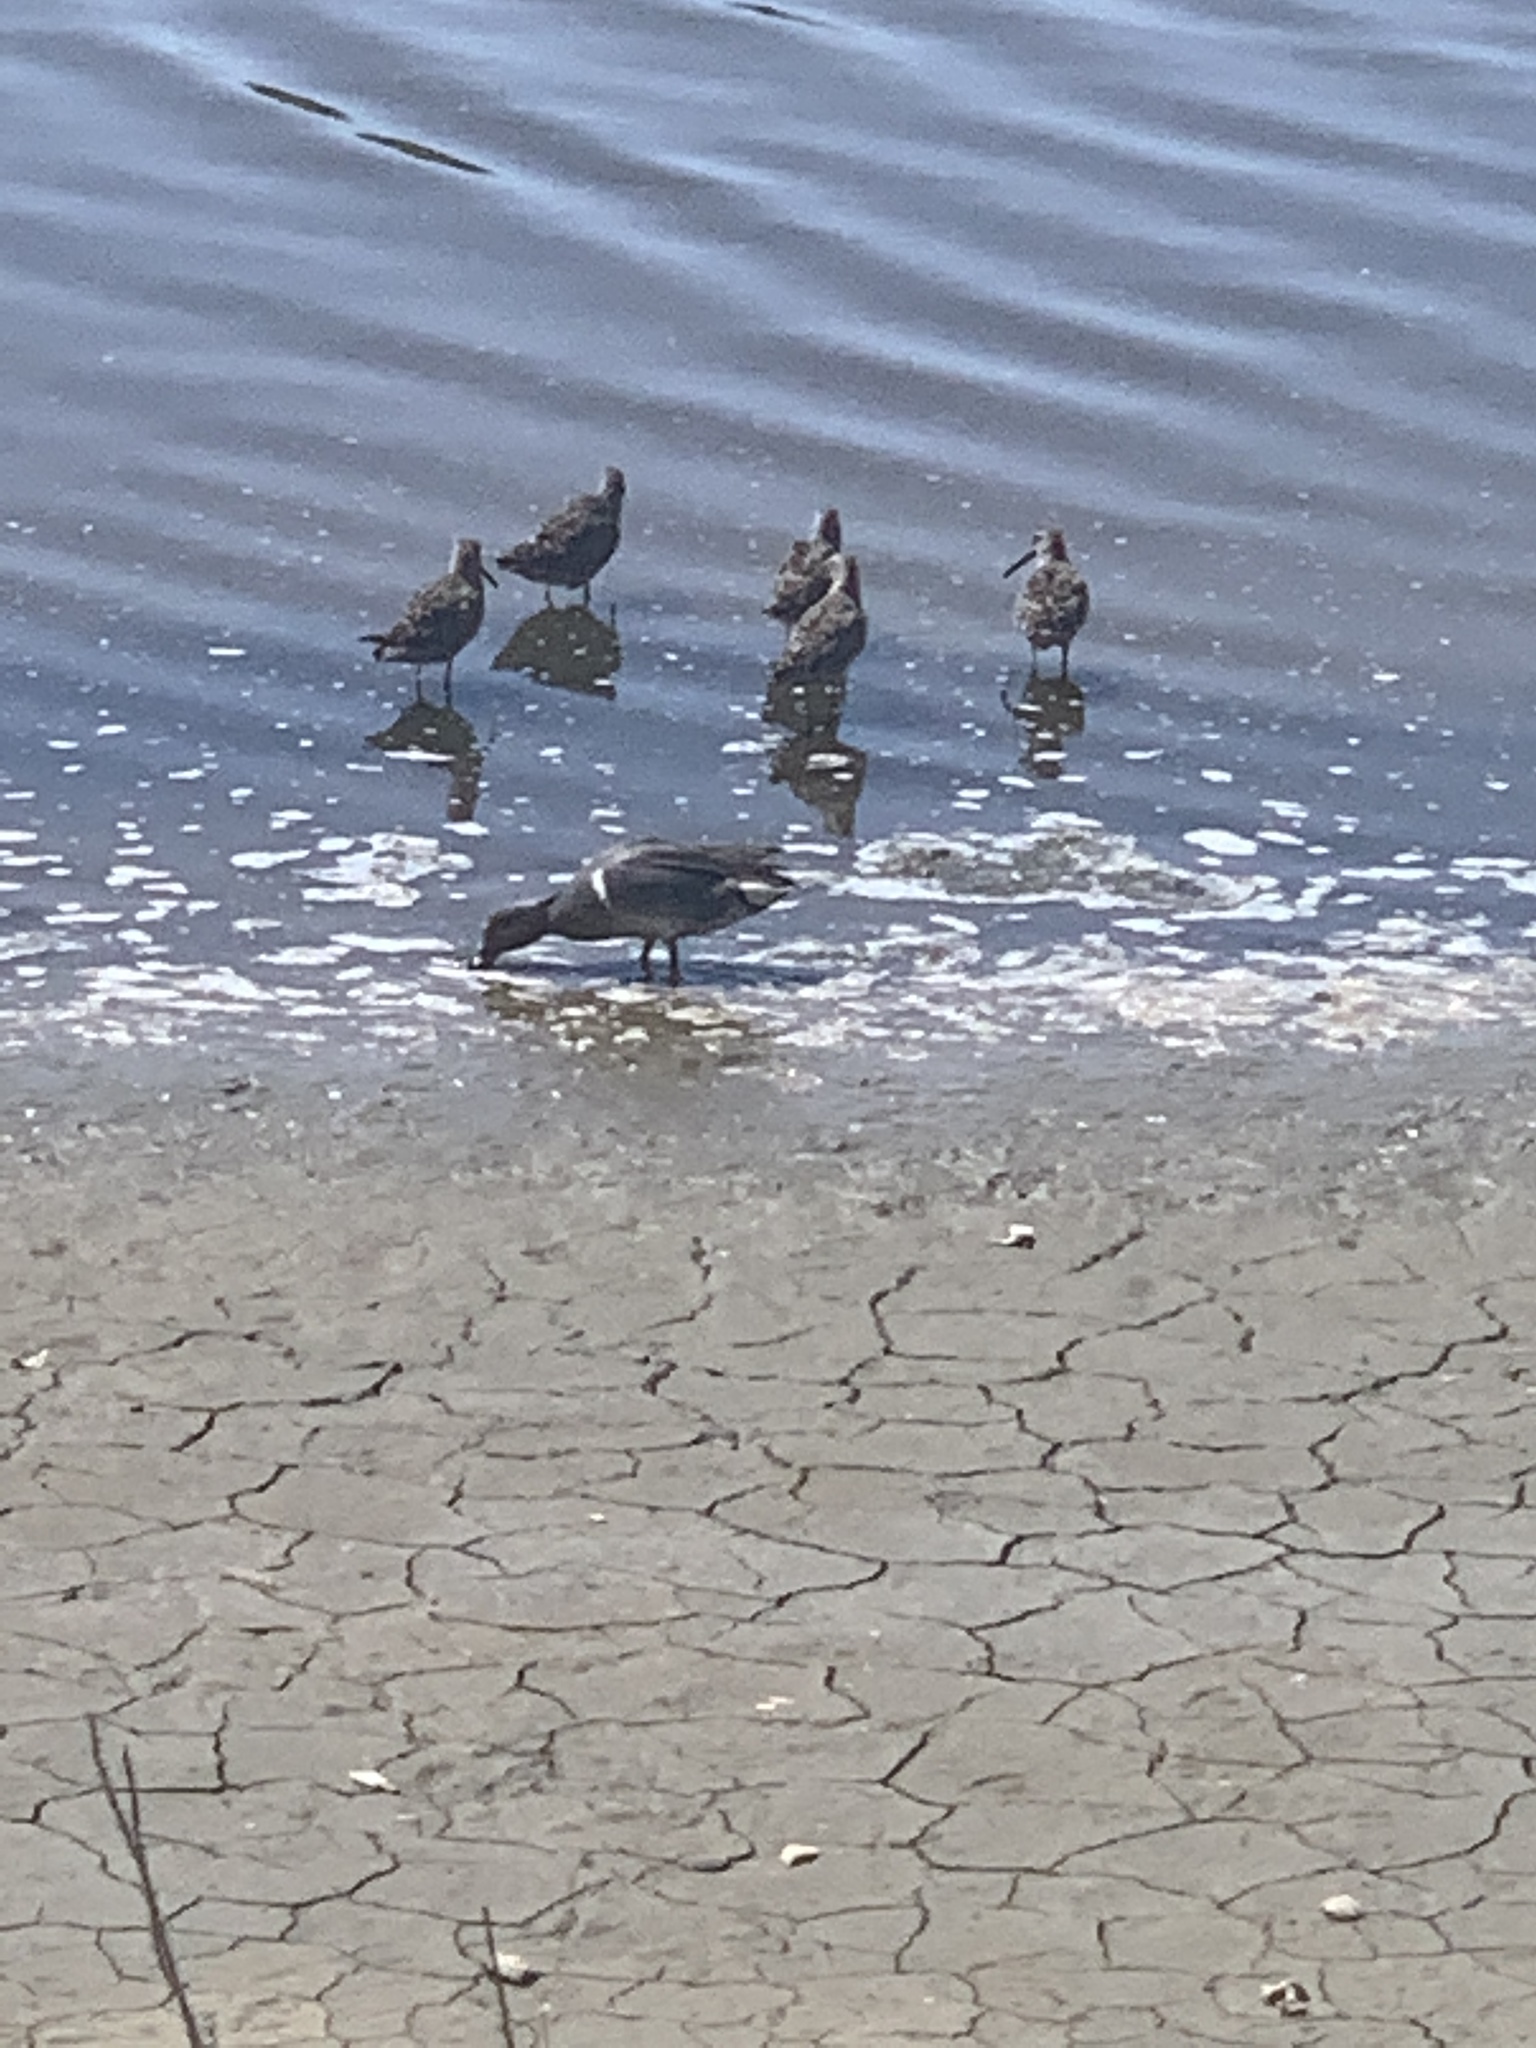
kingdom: Animalia
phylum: Chordata
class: Aves
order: Anseriformes
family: Anatidae
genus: Anas
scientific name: Anas crecca
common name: Eurasian teal
